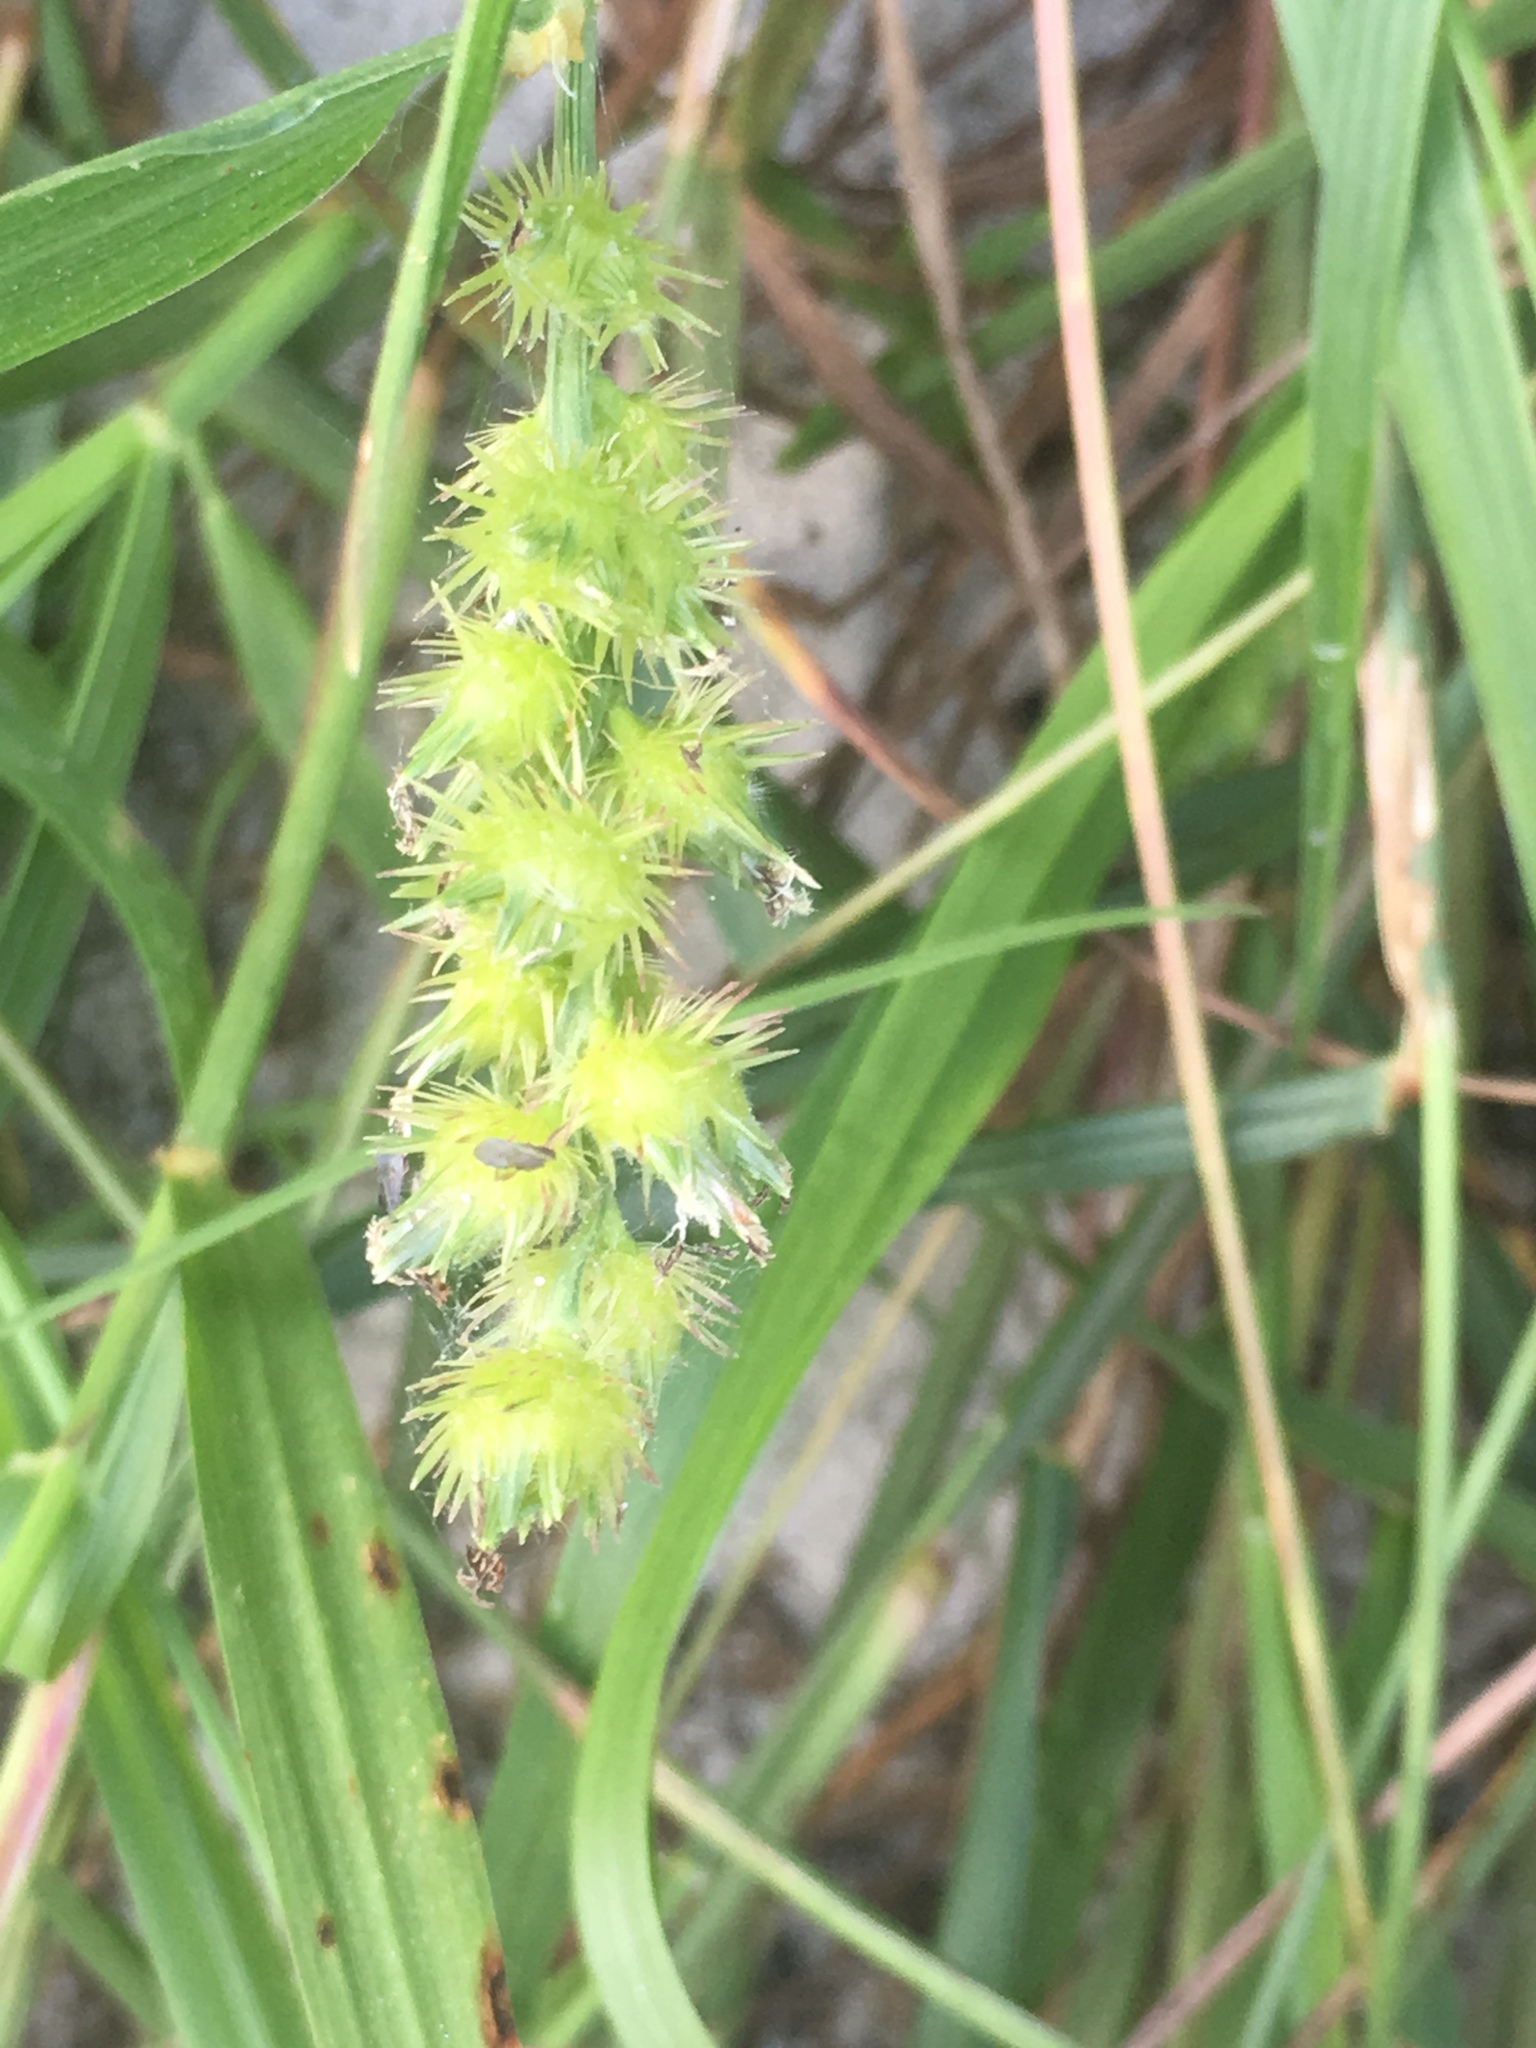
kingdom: Plantae
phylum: Tracheophyta
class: Liliopsida
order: Poales
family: Poaceae
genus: Cenchrus
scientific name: Cenchrus echinatus
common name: Southern sandbur
